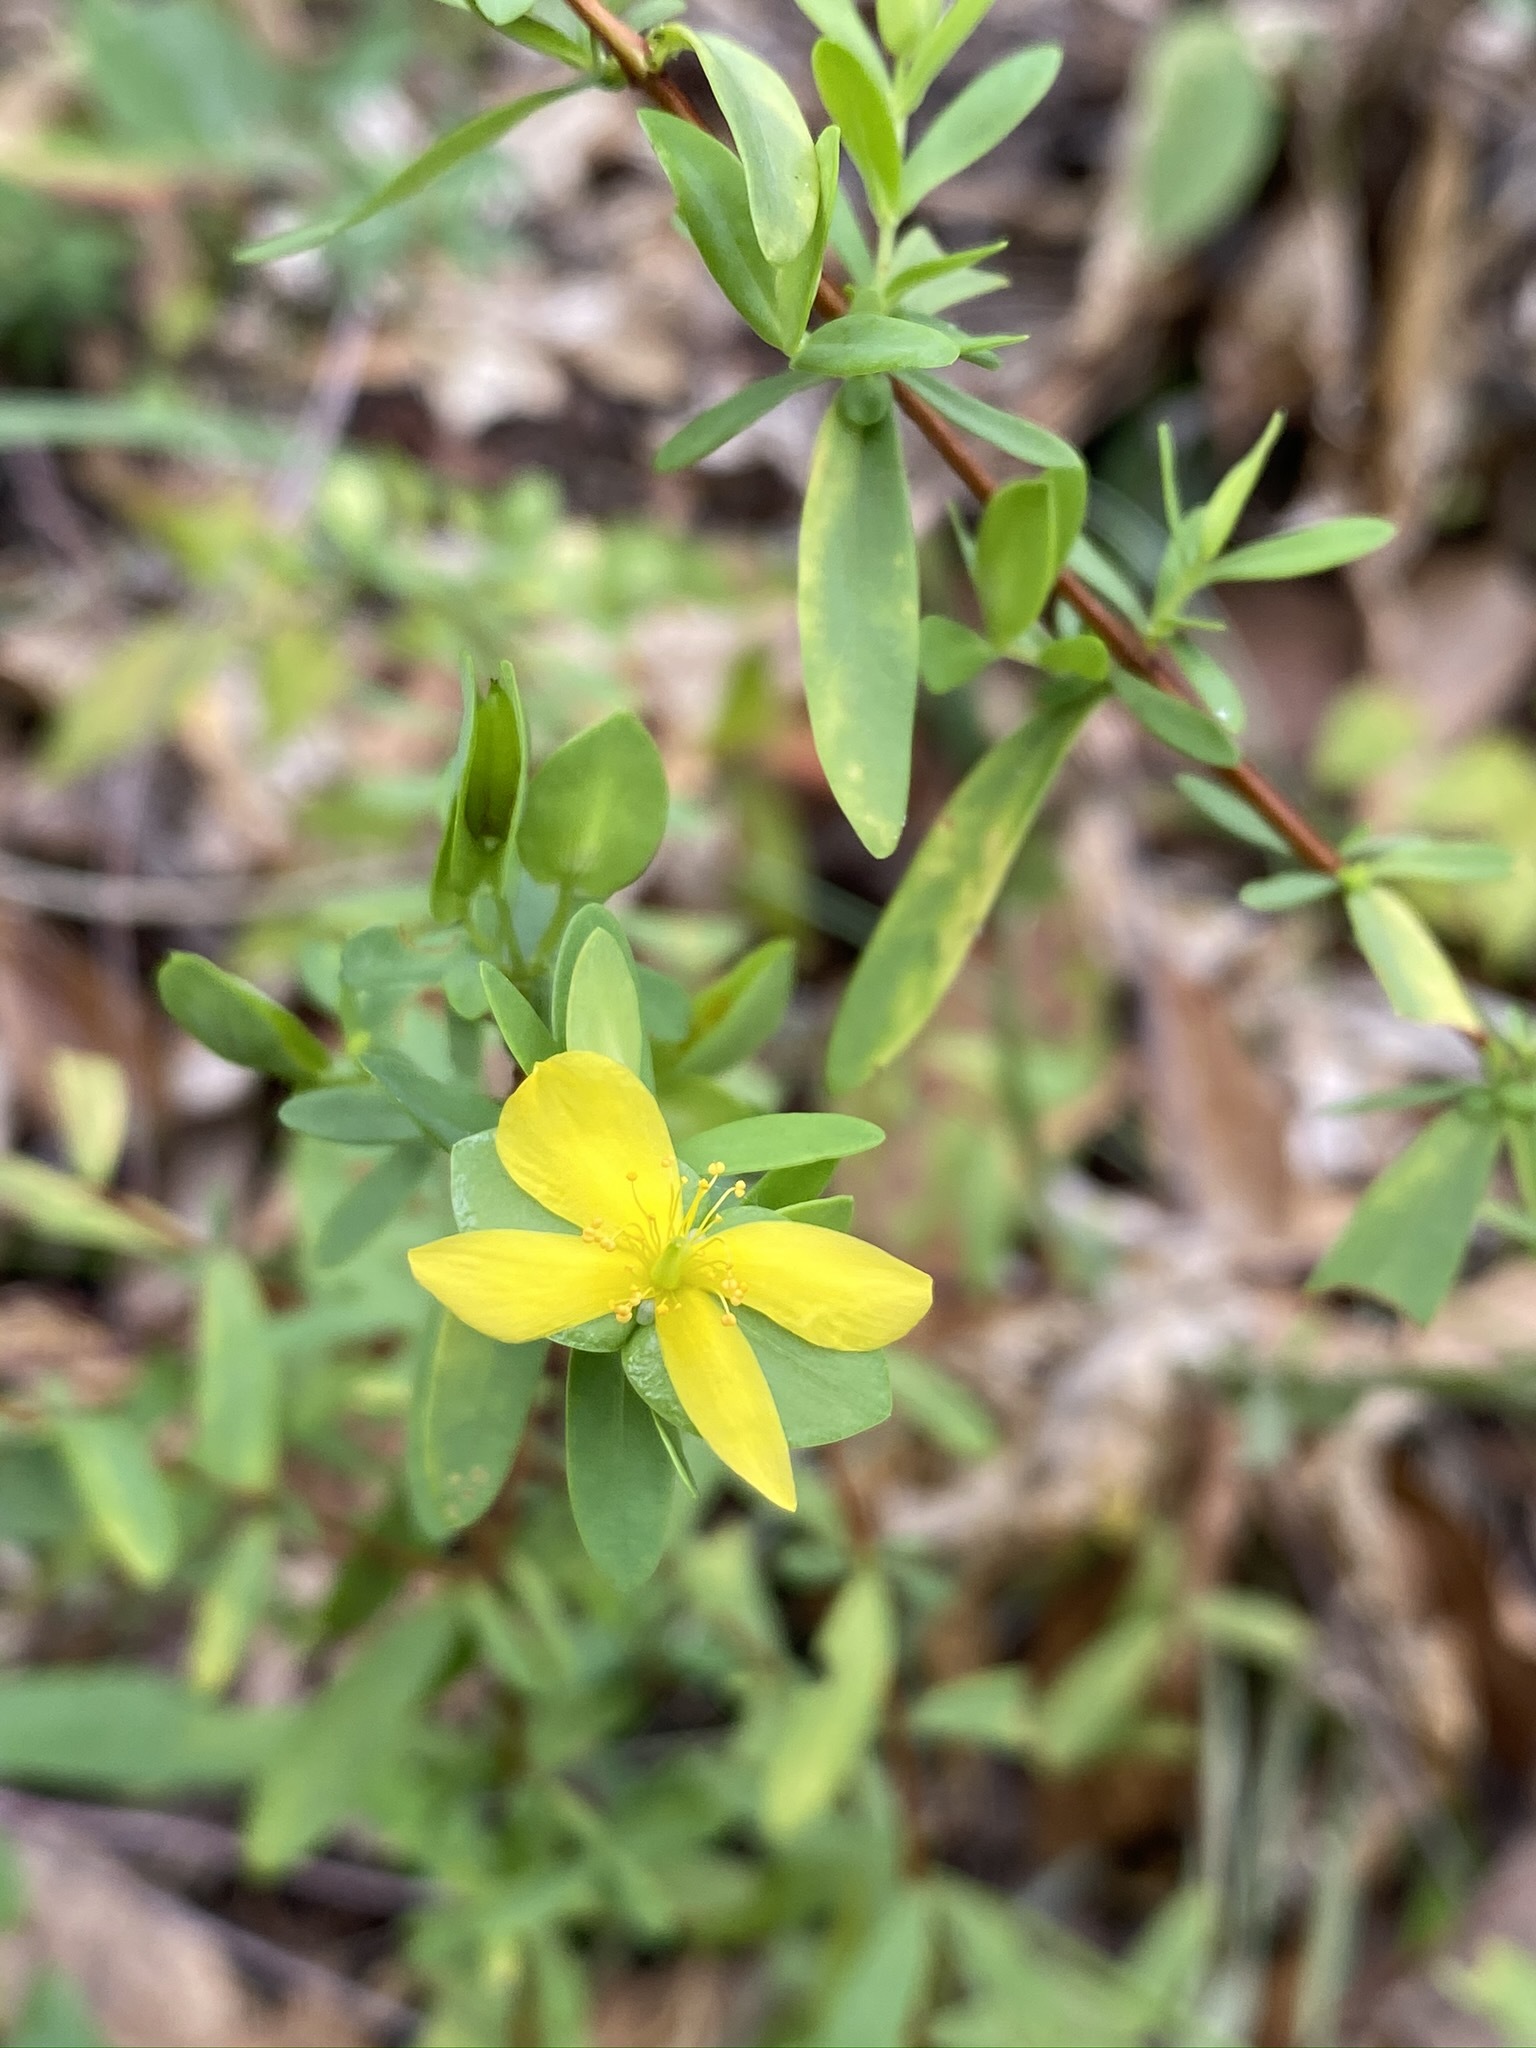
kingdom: Plantae
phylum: Tracheophyta
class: Magnoliopsida
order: Malpighiales
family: Hypericaceae
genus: Hypericum
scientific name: Hypericum hypericoides
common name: St. andrew's cross
